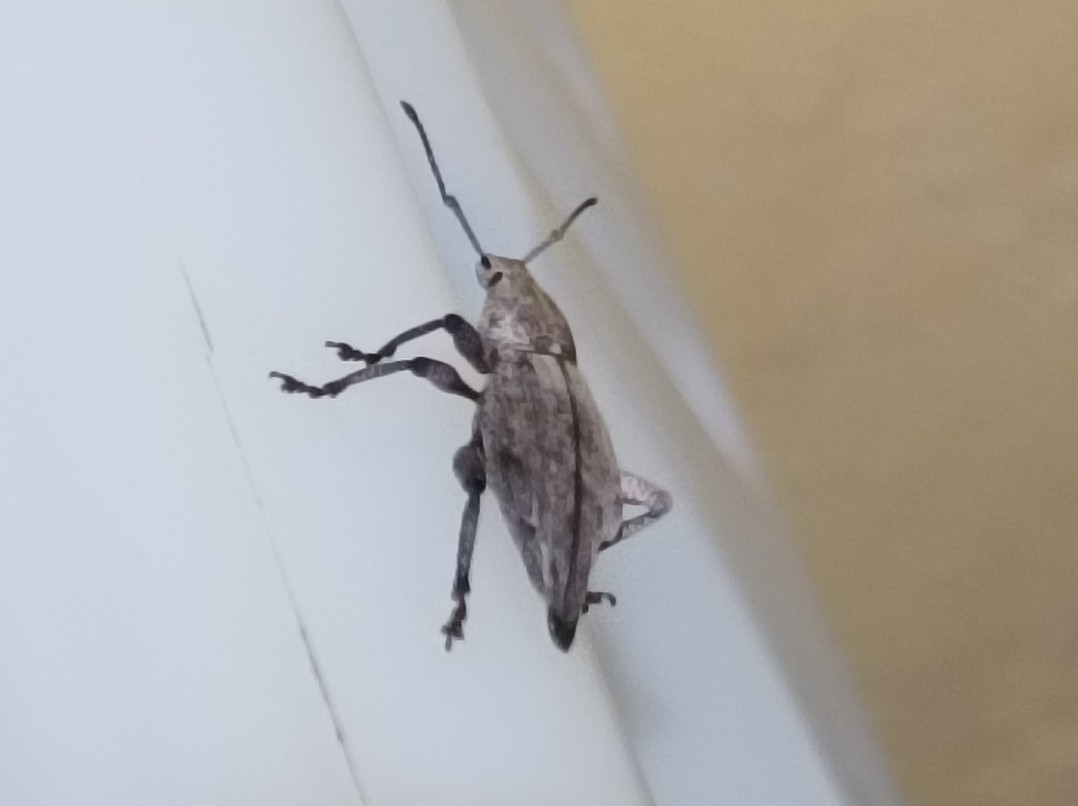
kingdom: Animalia
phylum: Arthropoda
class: Insecta
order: Coleoptera
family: Curculionidae
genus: Elytrurus
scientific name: Elytrurus caudatus
